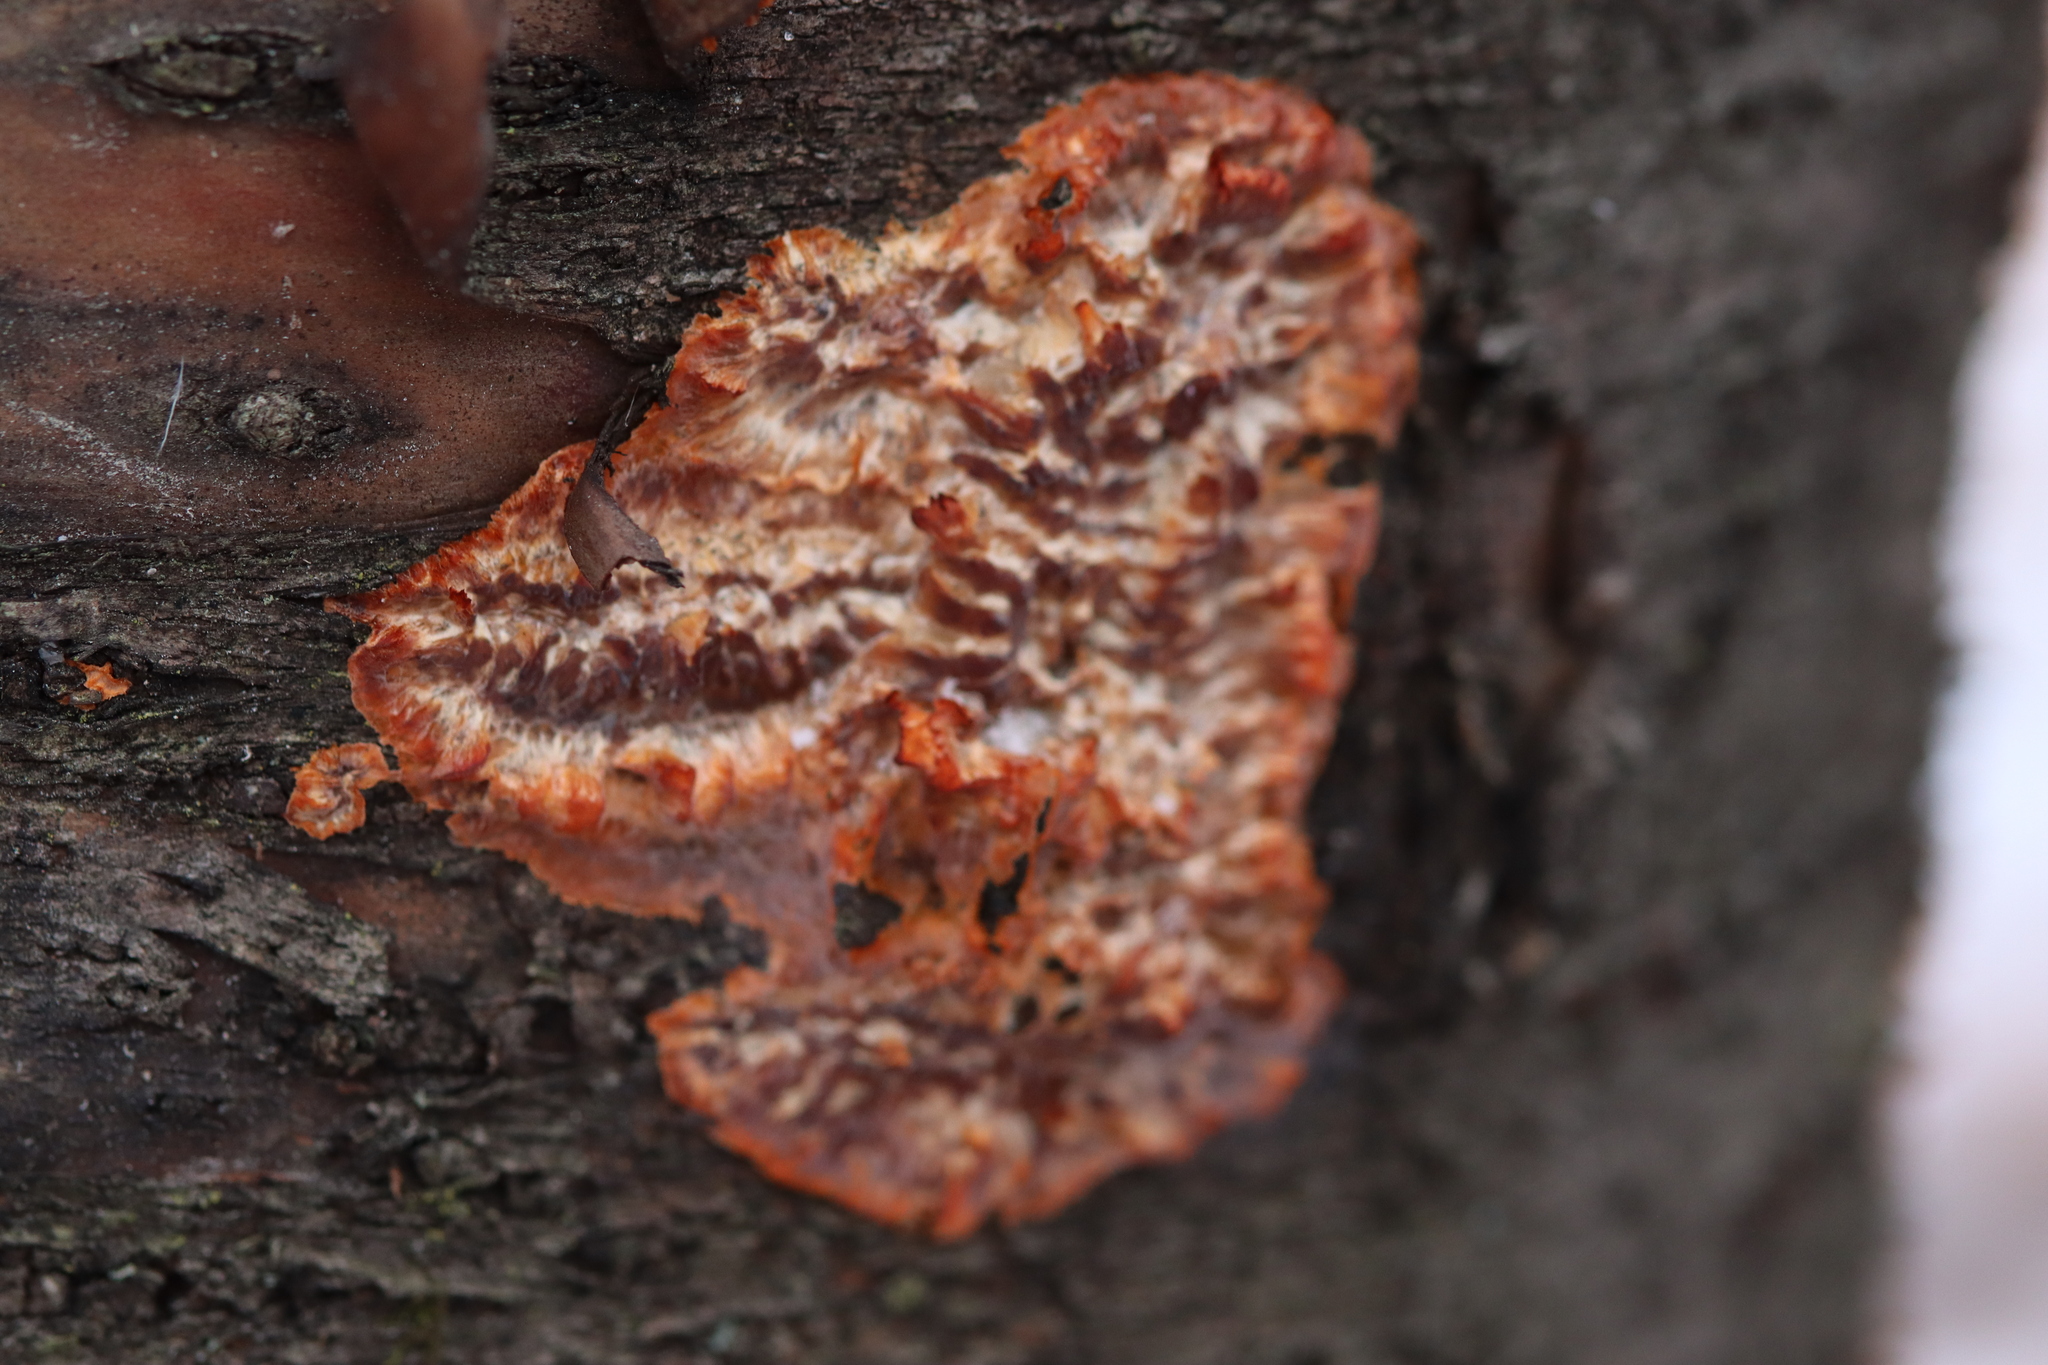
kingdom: Fungi
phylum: Basidiomycota
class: Agaricomycetes
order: Polyporales
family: Meruliaceae
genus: Phlebia
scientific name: Phlebia radiata
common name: Wrinkled crust
